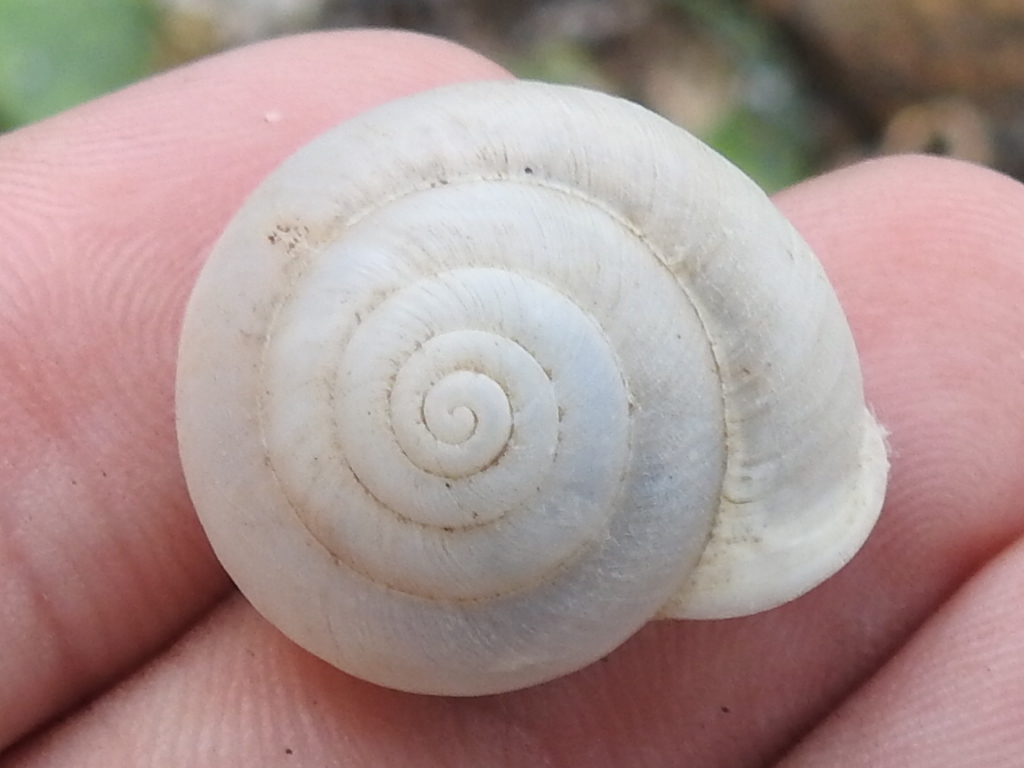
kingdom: Animalia
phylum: Mollusca
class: Gastropoda
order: Stylommatophora
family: Polygyridae
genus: Patera
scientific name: Patera roemeri
